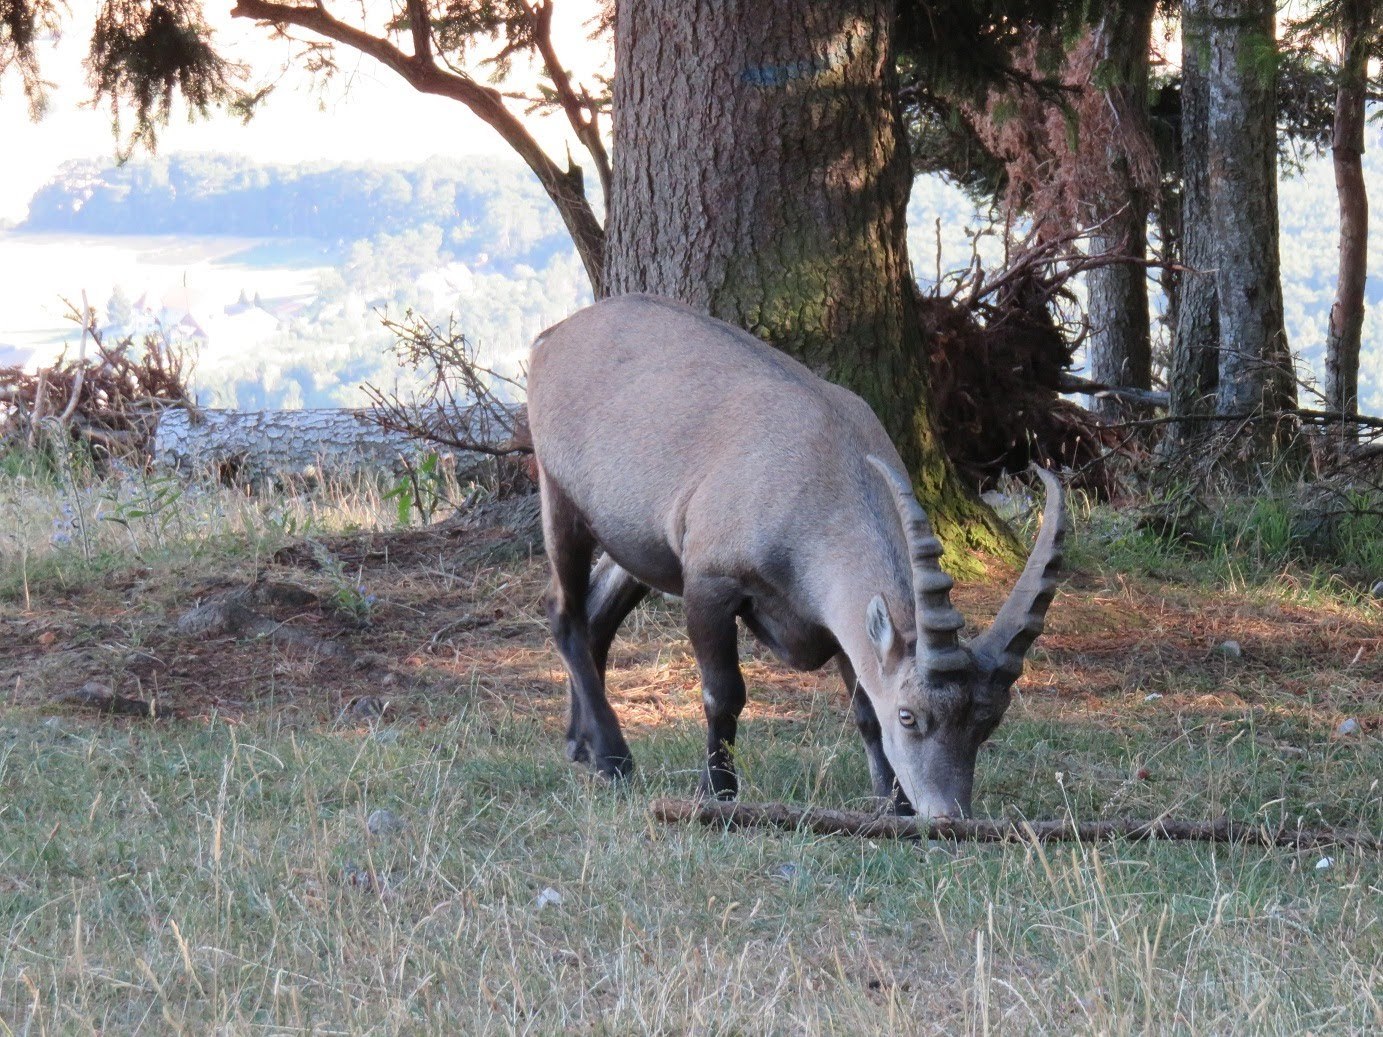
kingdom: Animalia
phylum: Chordata
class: Mammalia
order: Artiodactyla
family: Bovidae
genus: Capra
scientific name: Capra ibex
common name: Alpine ibex
